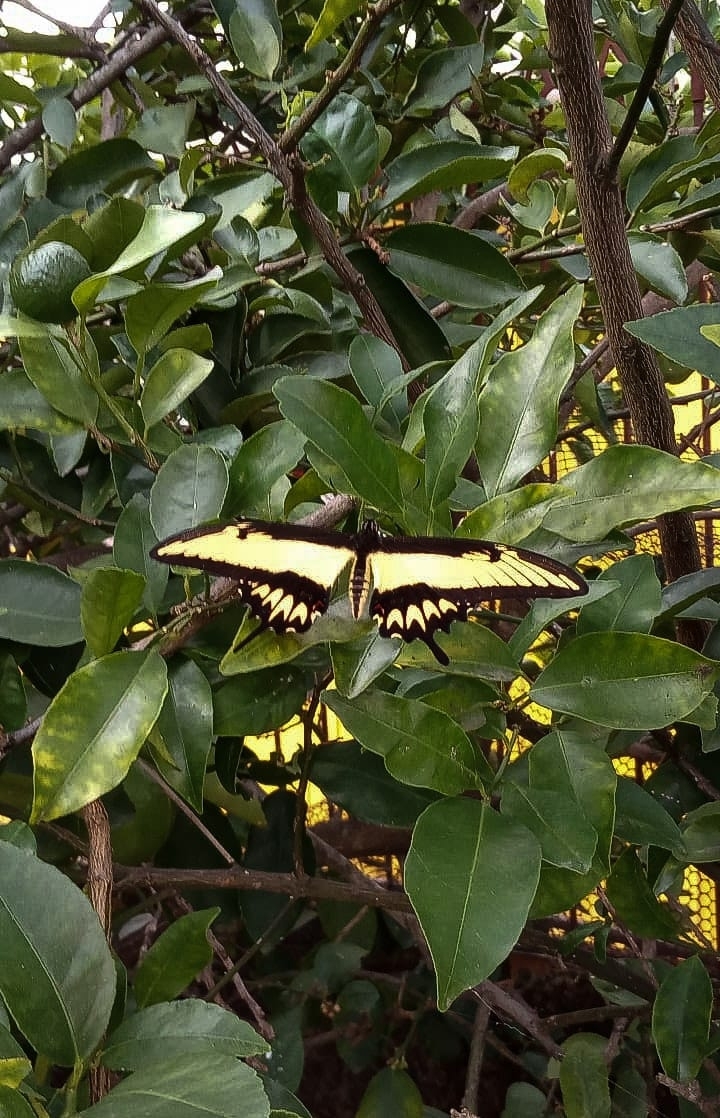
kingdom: Animalia
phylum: Arthropoda
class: Insecta
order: Lepidoptera
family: Papilionidae
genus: Papilio
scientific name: Papilio astyalus
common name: Astyalus swallowtail
